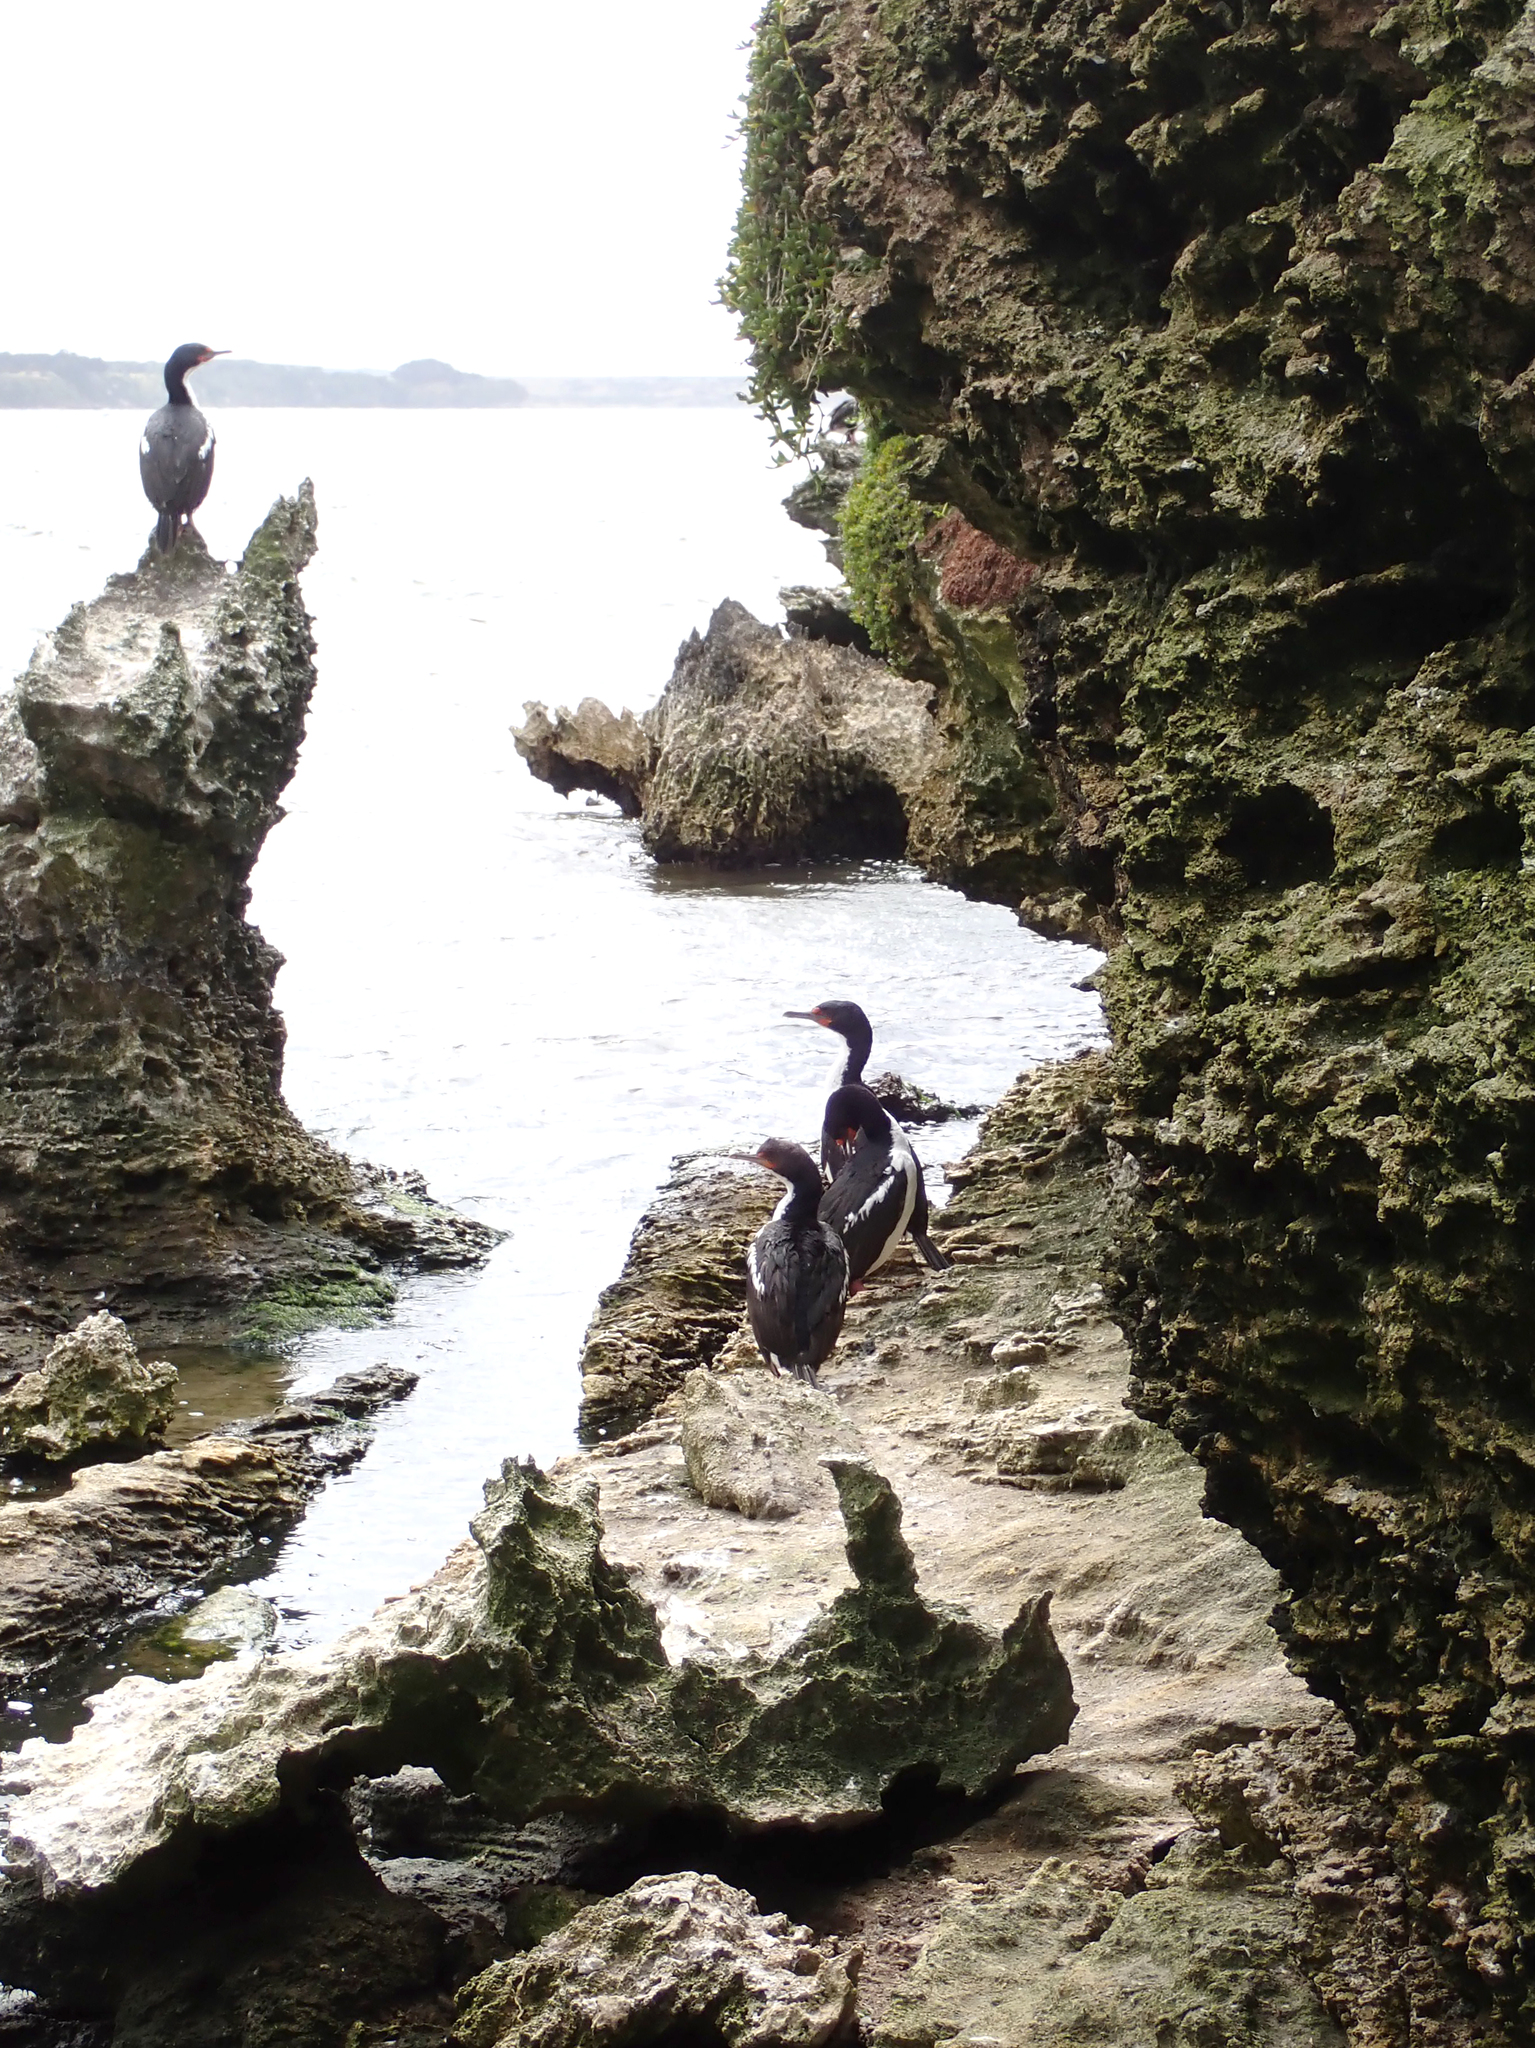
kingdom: Animalia
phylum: Chordata
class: Aves
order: Suliformes
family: Phalacrocoracidae
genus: Leucocarbo
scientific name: Leucocarbo onslowi
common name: Chatham shag
